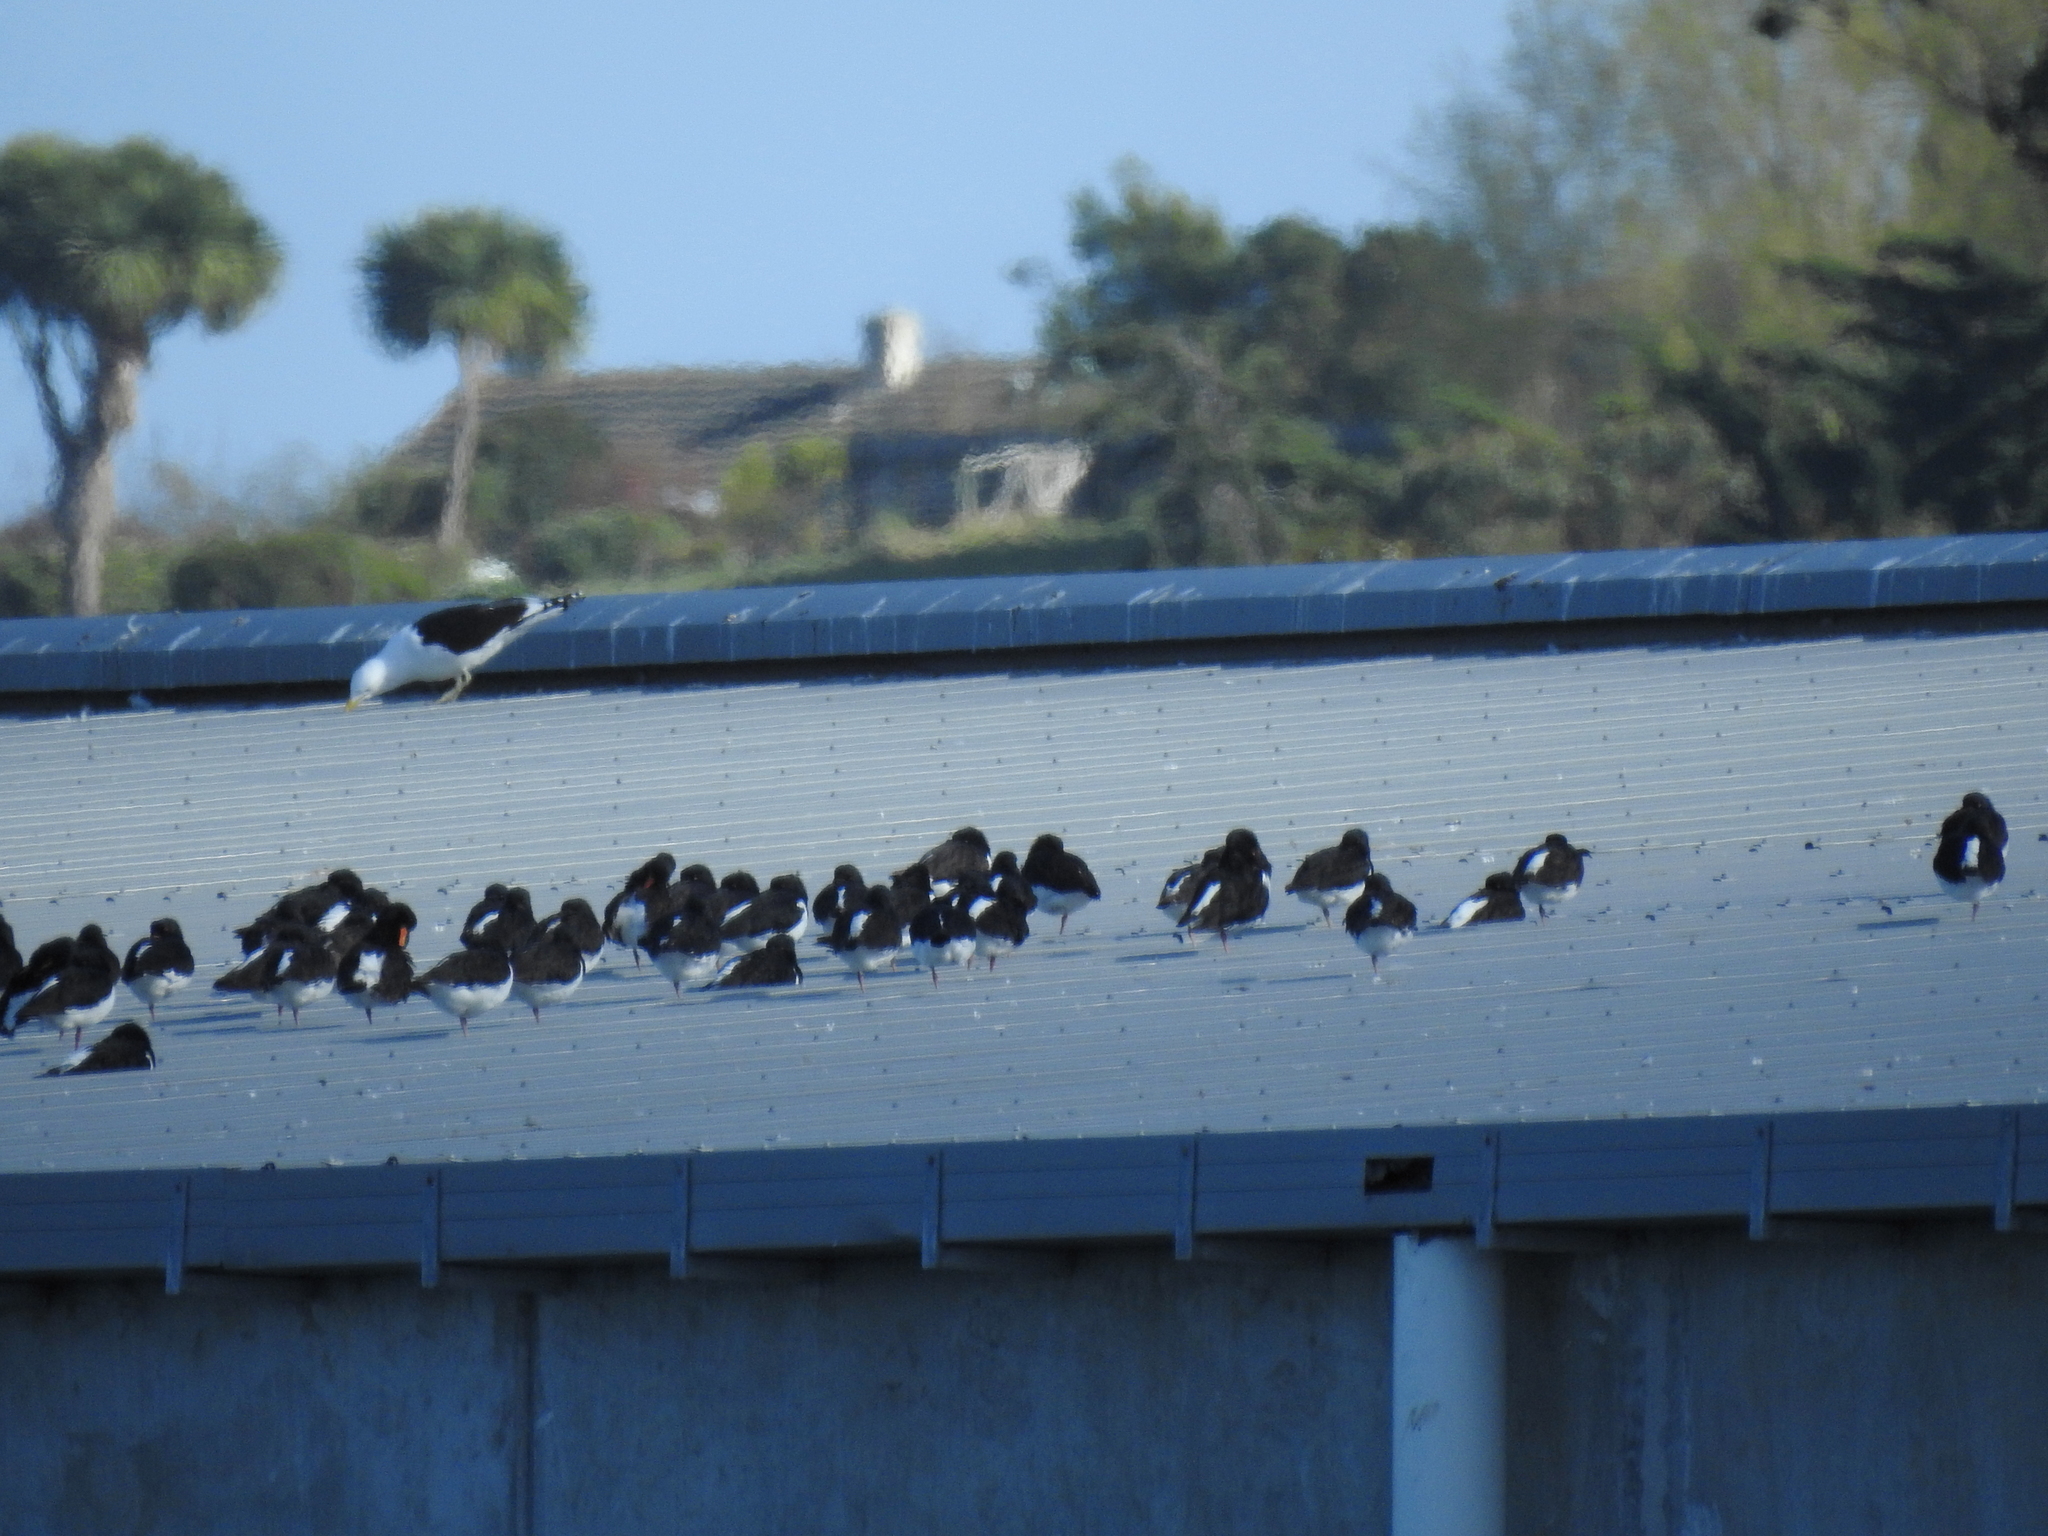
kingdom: Animalia
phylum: Chordata
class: Aves
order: Charadriiformes
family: Haematopodidae
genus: Haematopus
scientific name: Haematopus finschi
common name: South island oystercatcher
